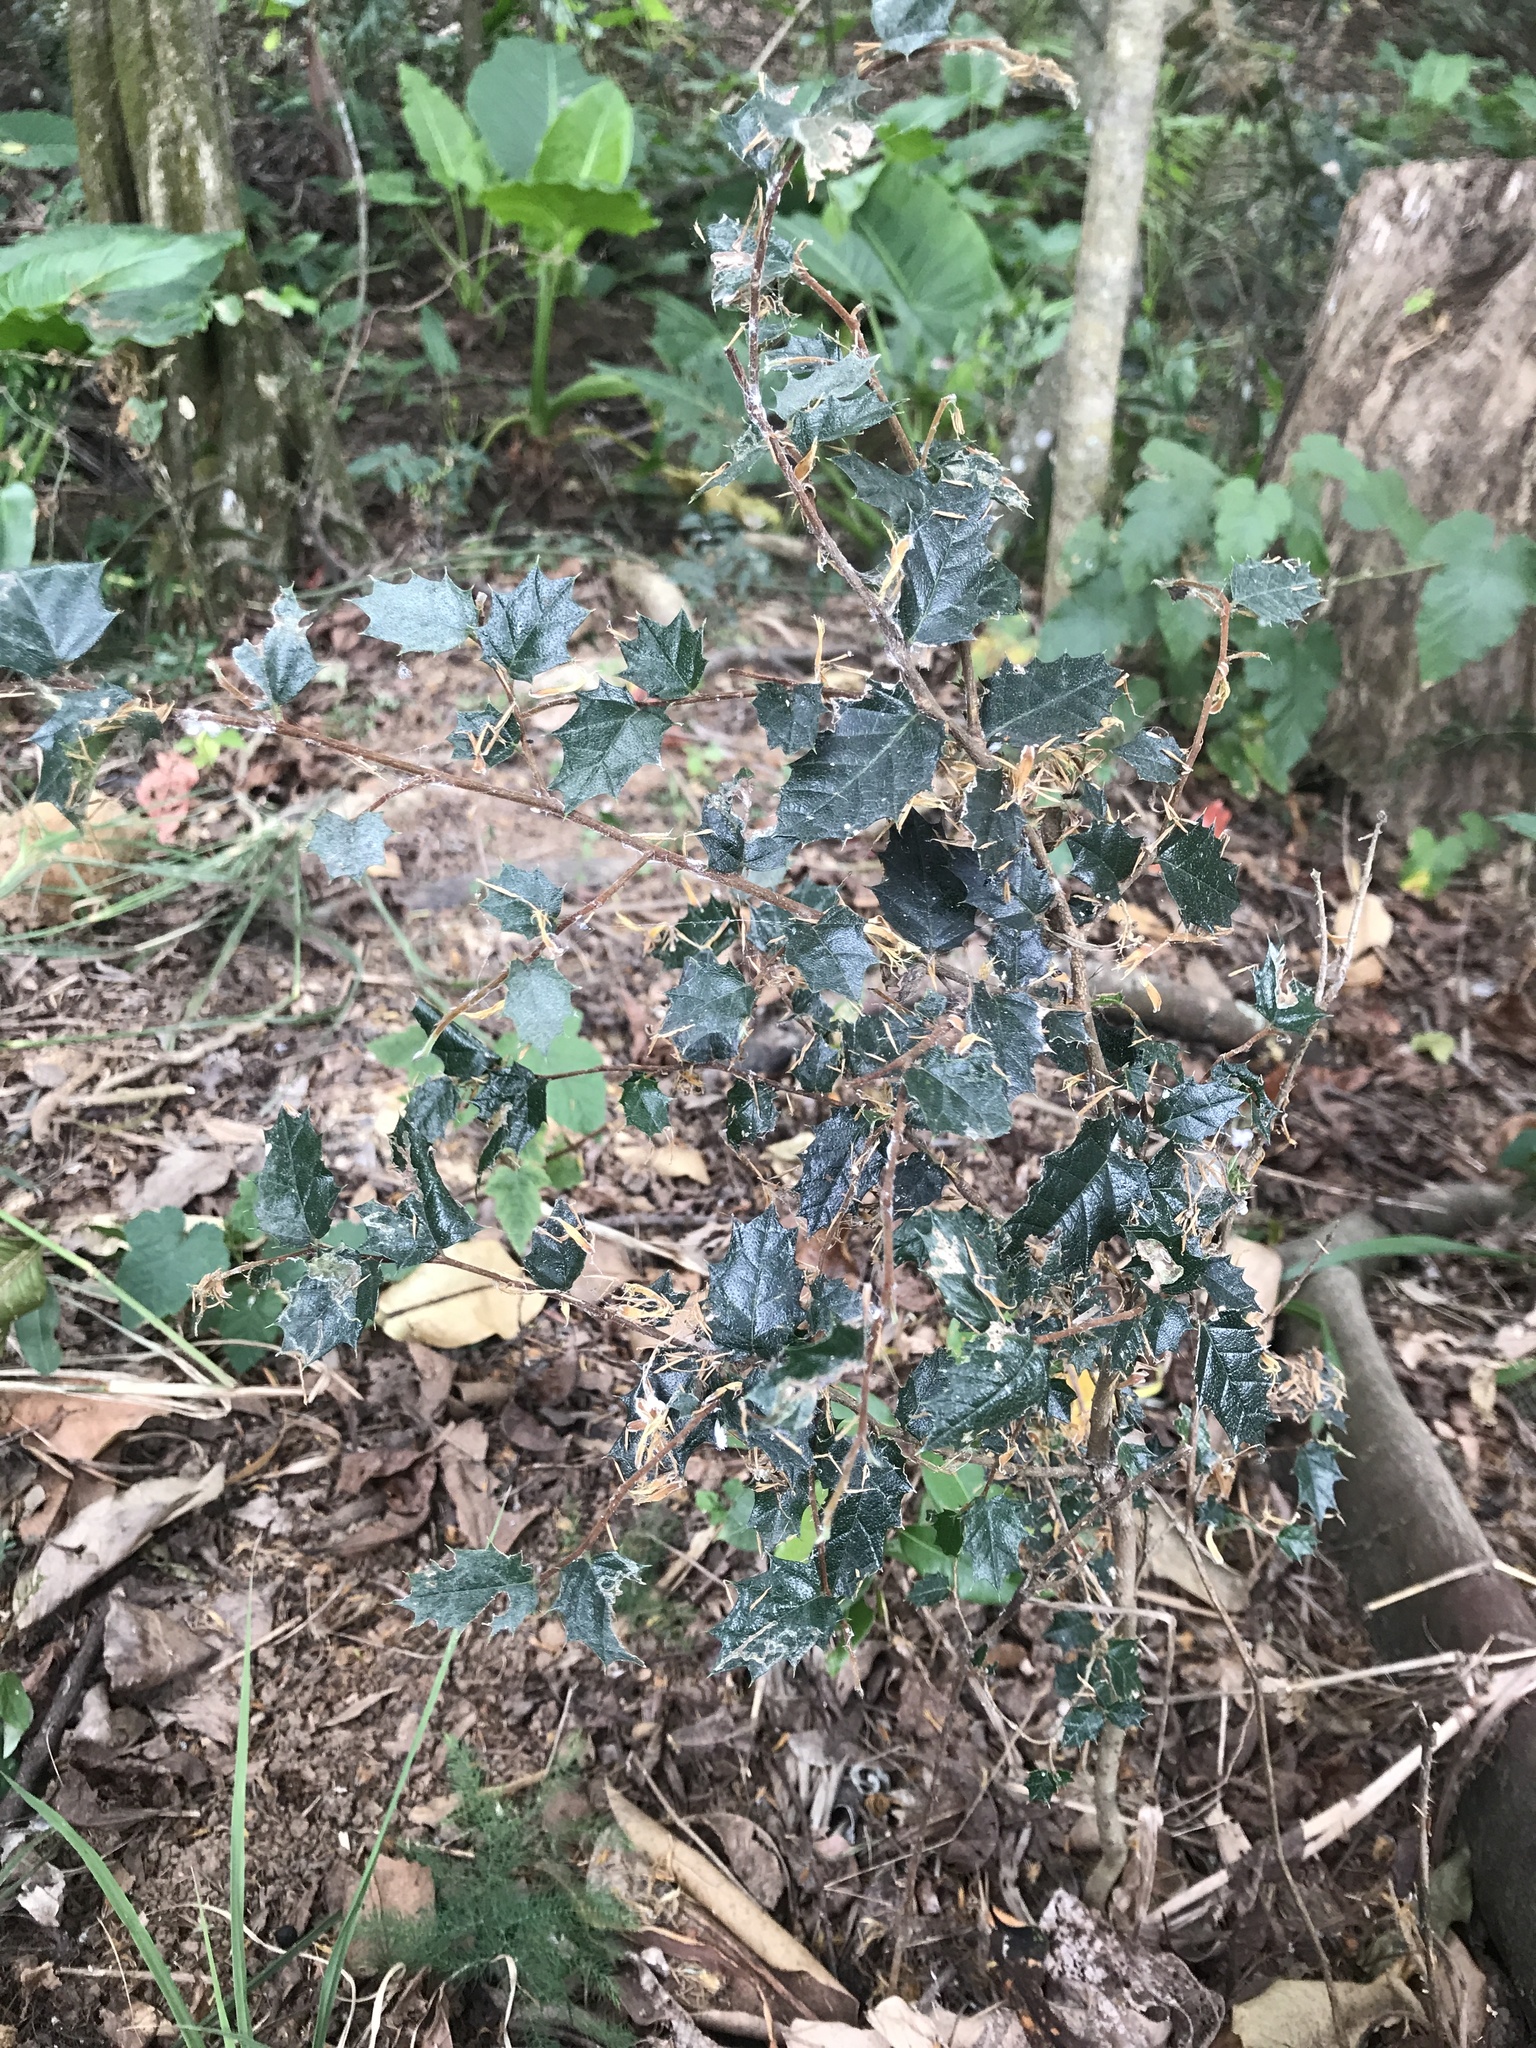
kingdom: Plantae
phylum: Tracheophyta
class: Magnoliopsida
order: Rosales
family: Cannabaceae
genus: Aphananthe
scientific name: Aphananthe philippinensis
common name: Wild holly
